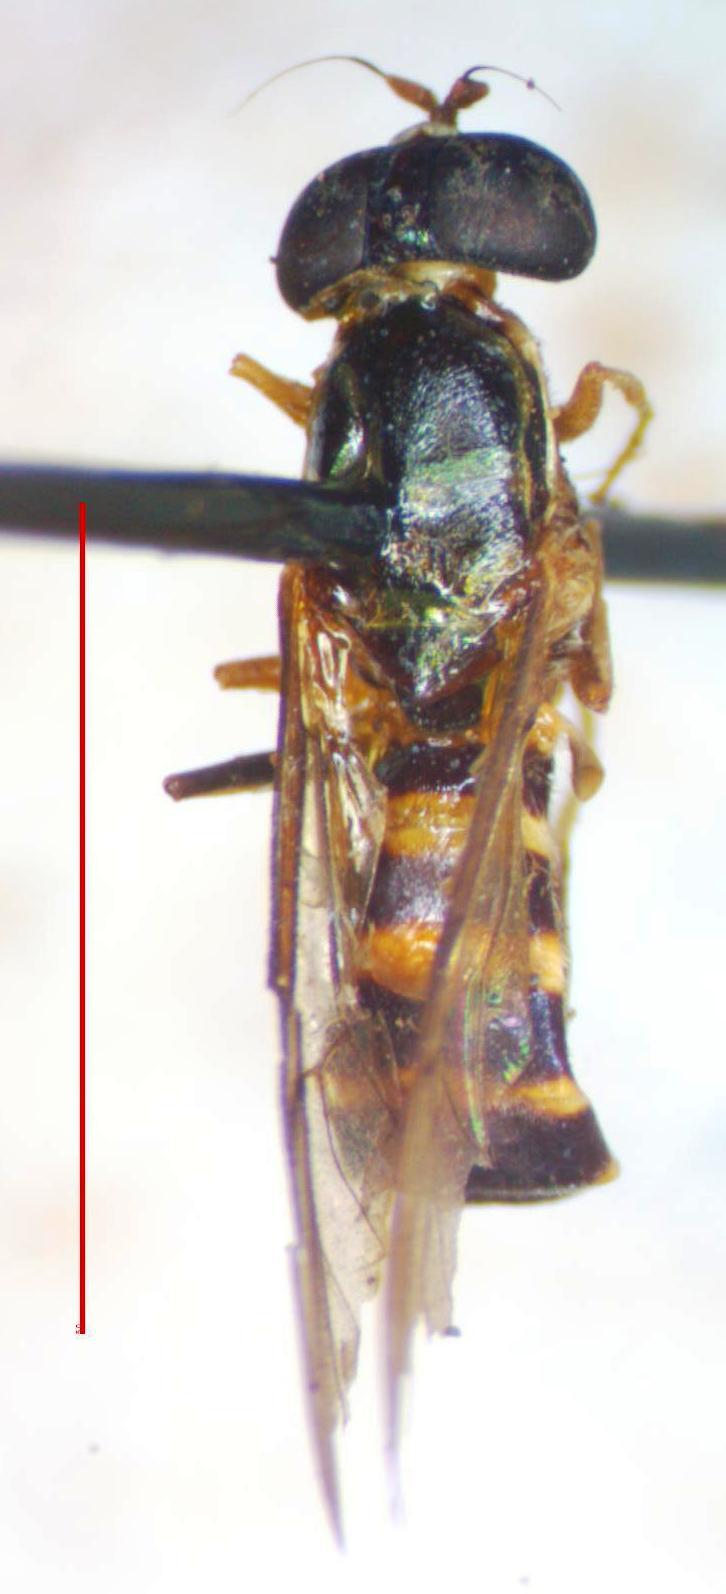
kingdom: Animalia
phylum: Arthropoda
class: Insecta
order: Diptera
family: Stratiomyidae
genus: Merosargus
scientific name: Merosargus cingulatus
